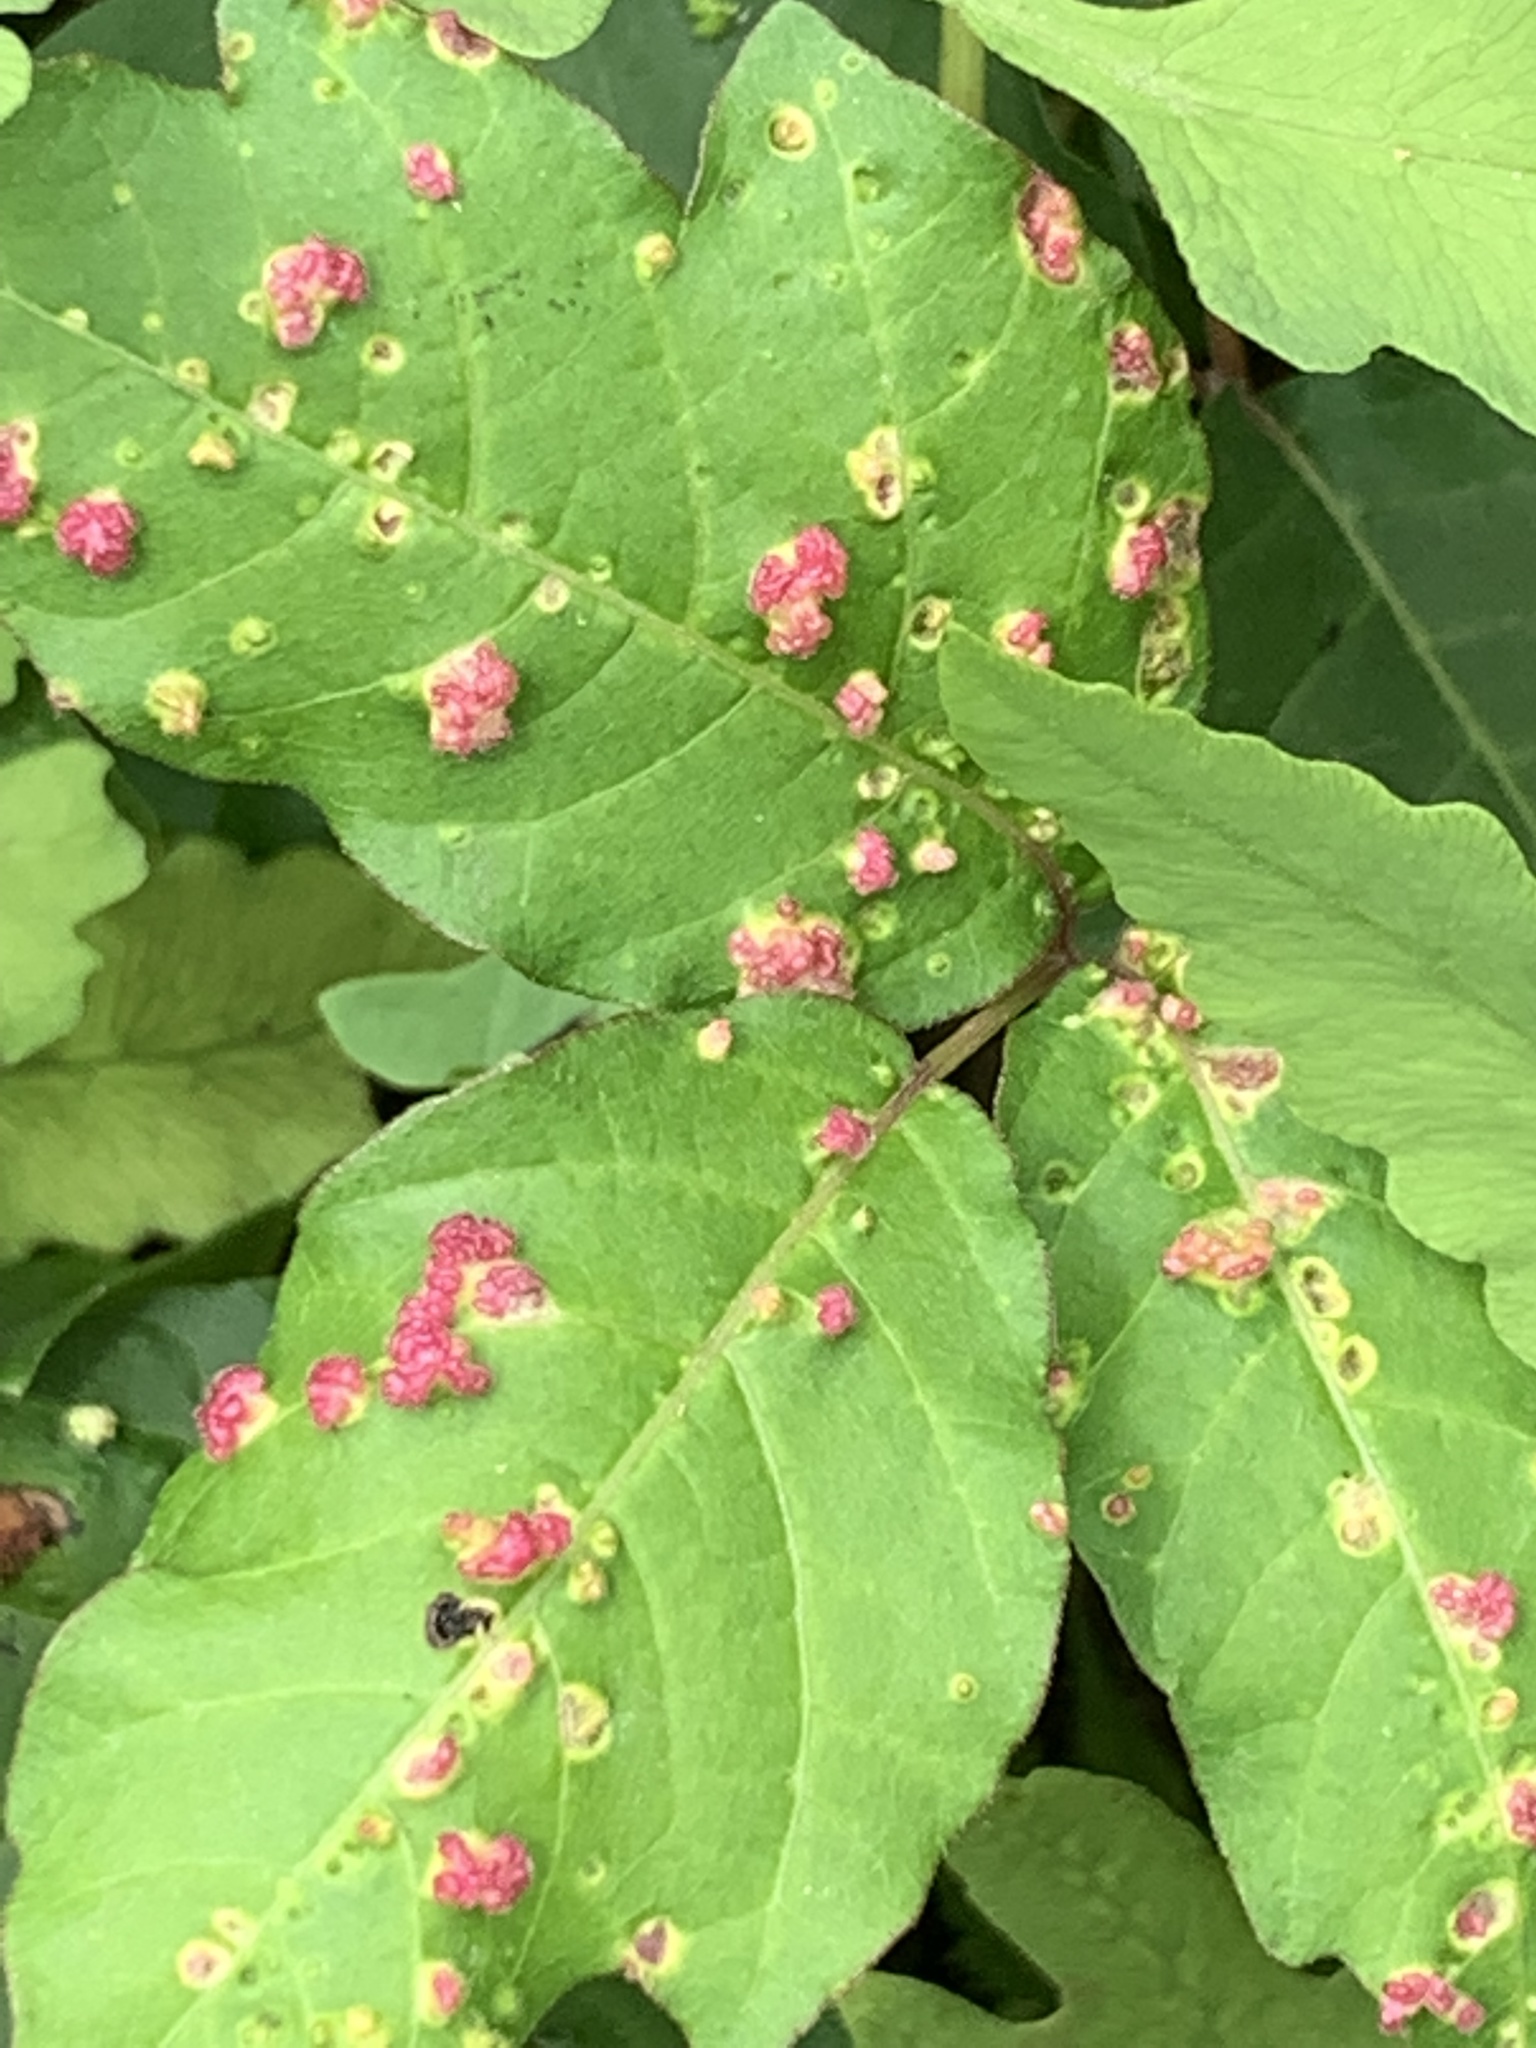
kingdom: Animalia
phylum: Arthropoda
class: Arachnida
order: Trombidiformes
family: Eriophyidae
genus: Aculops
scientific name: Aculops
